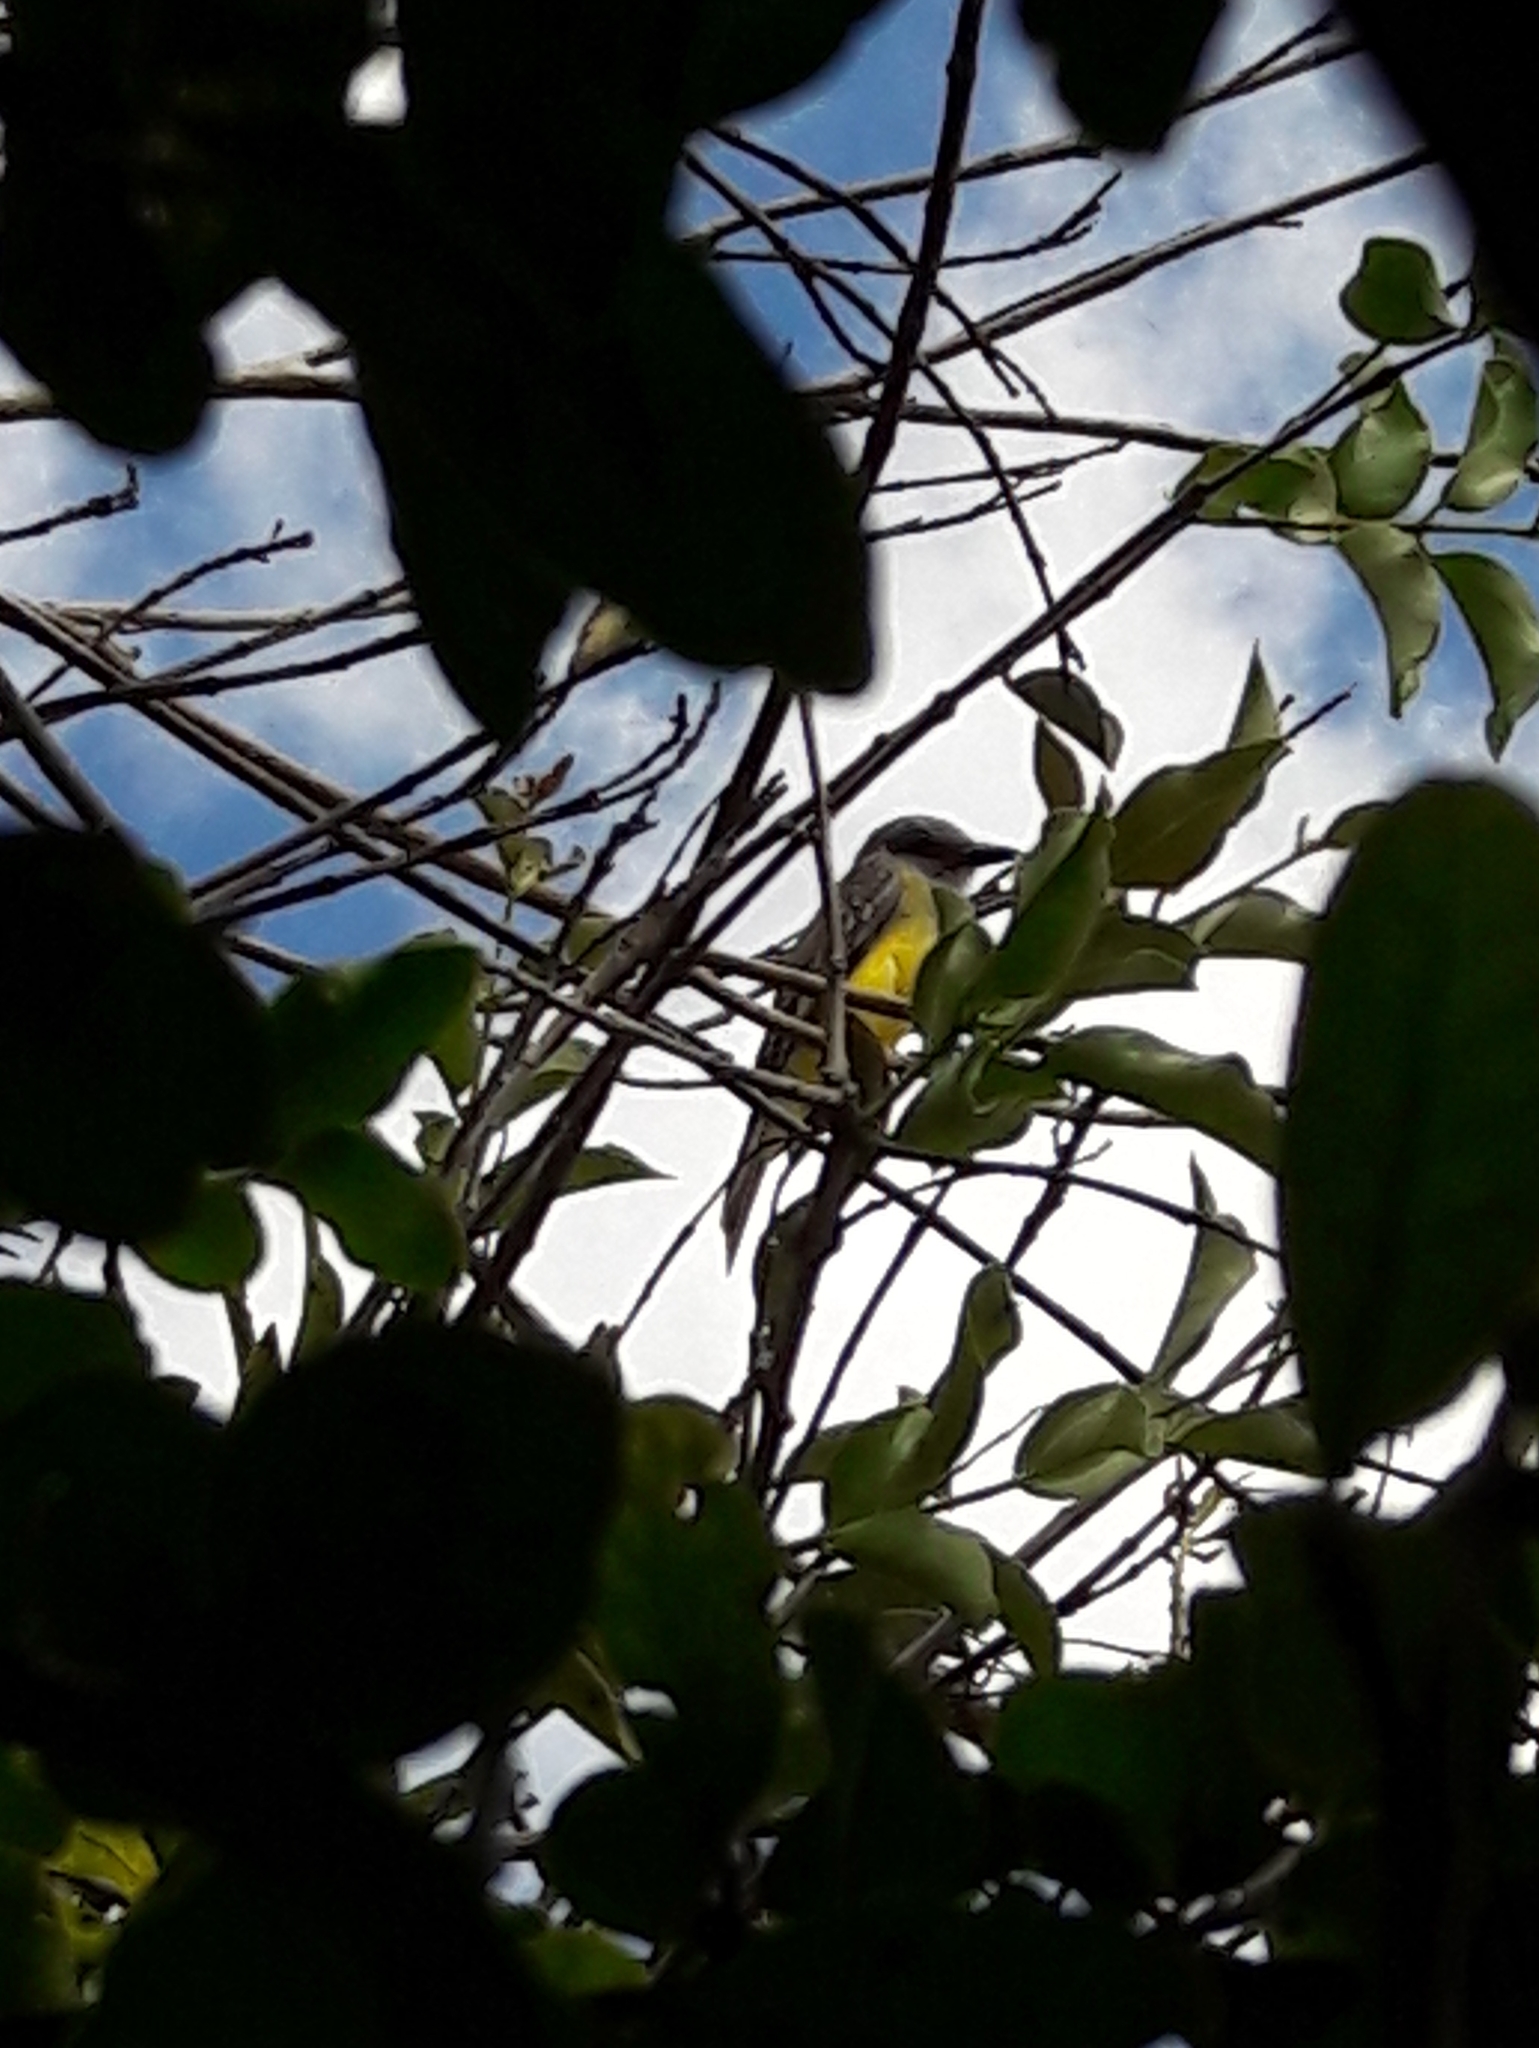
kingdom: Animalia
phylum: Chordata
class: Aves
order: Passeriformes
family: Tyrannidae
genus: Tyrannus
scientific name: Tyrannus melancholicus
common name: Tropical kingbird
